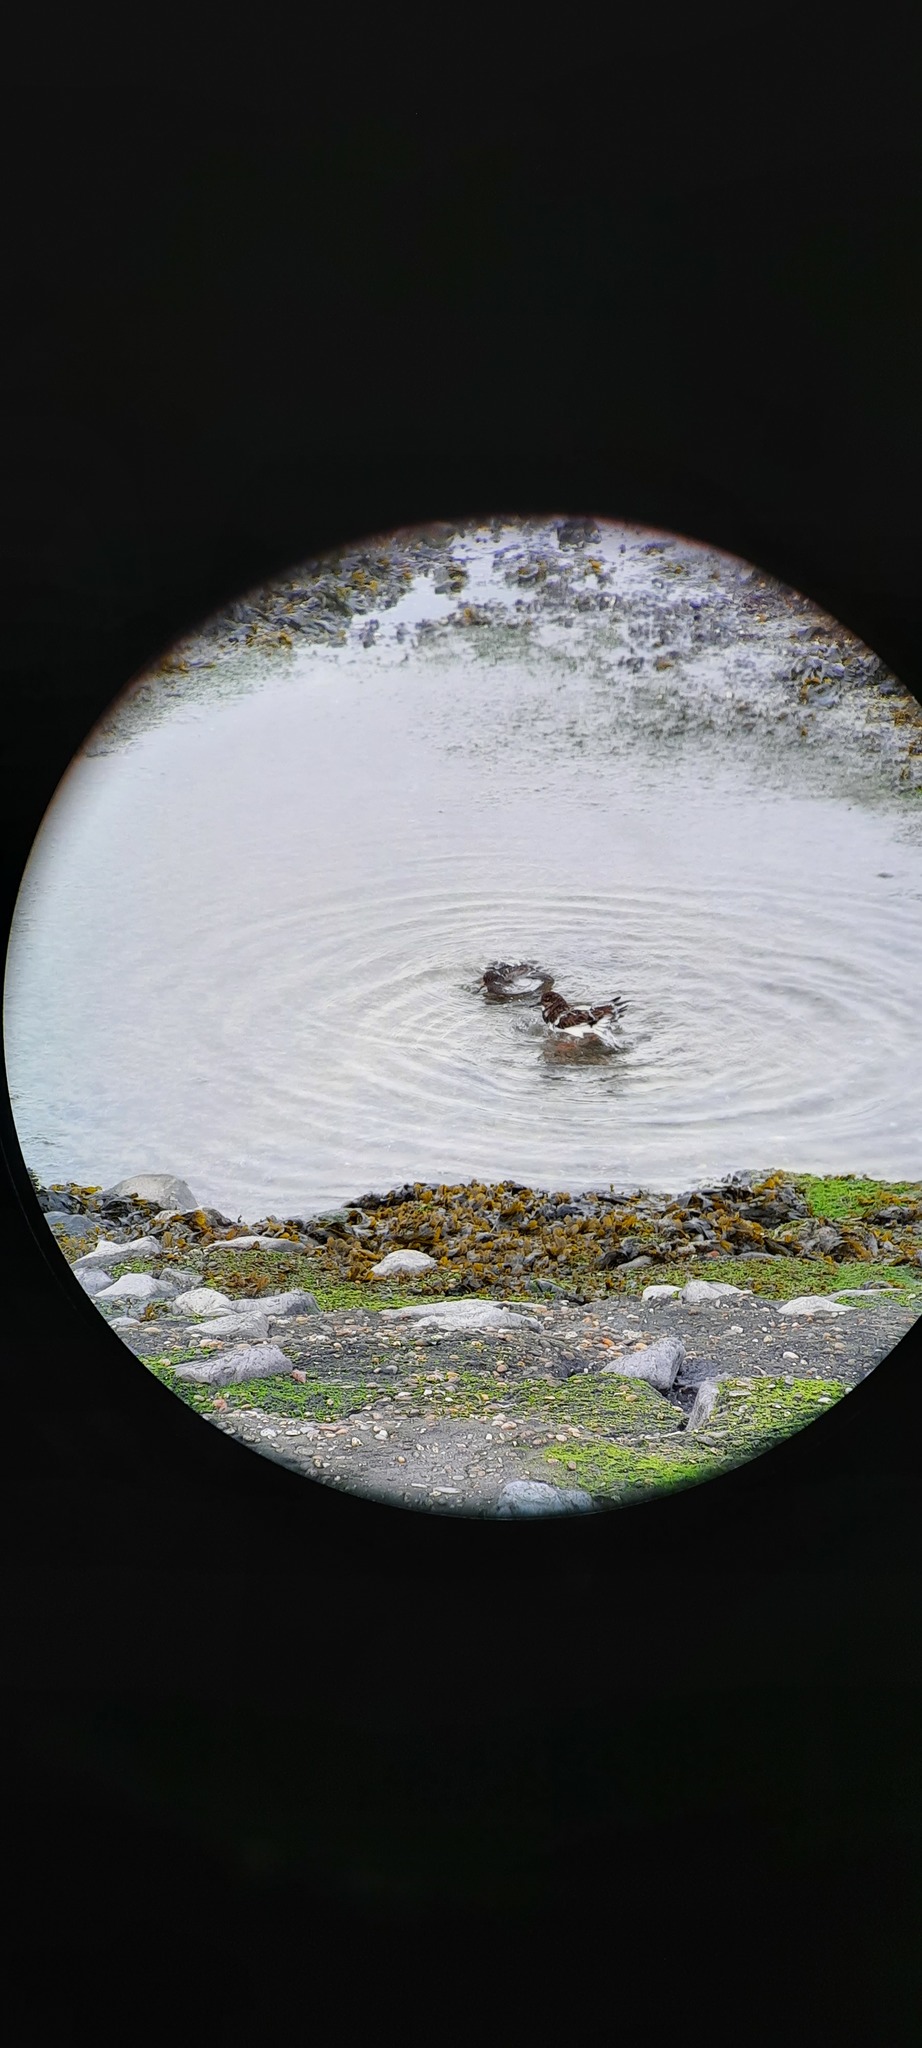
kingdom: Animalia
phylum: Chordata
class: Aves
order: Charadriiformes
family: Scolopacidae
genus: Calidris
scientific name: Calidris maritima
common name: Purple sandpiper
